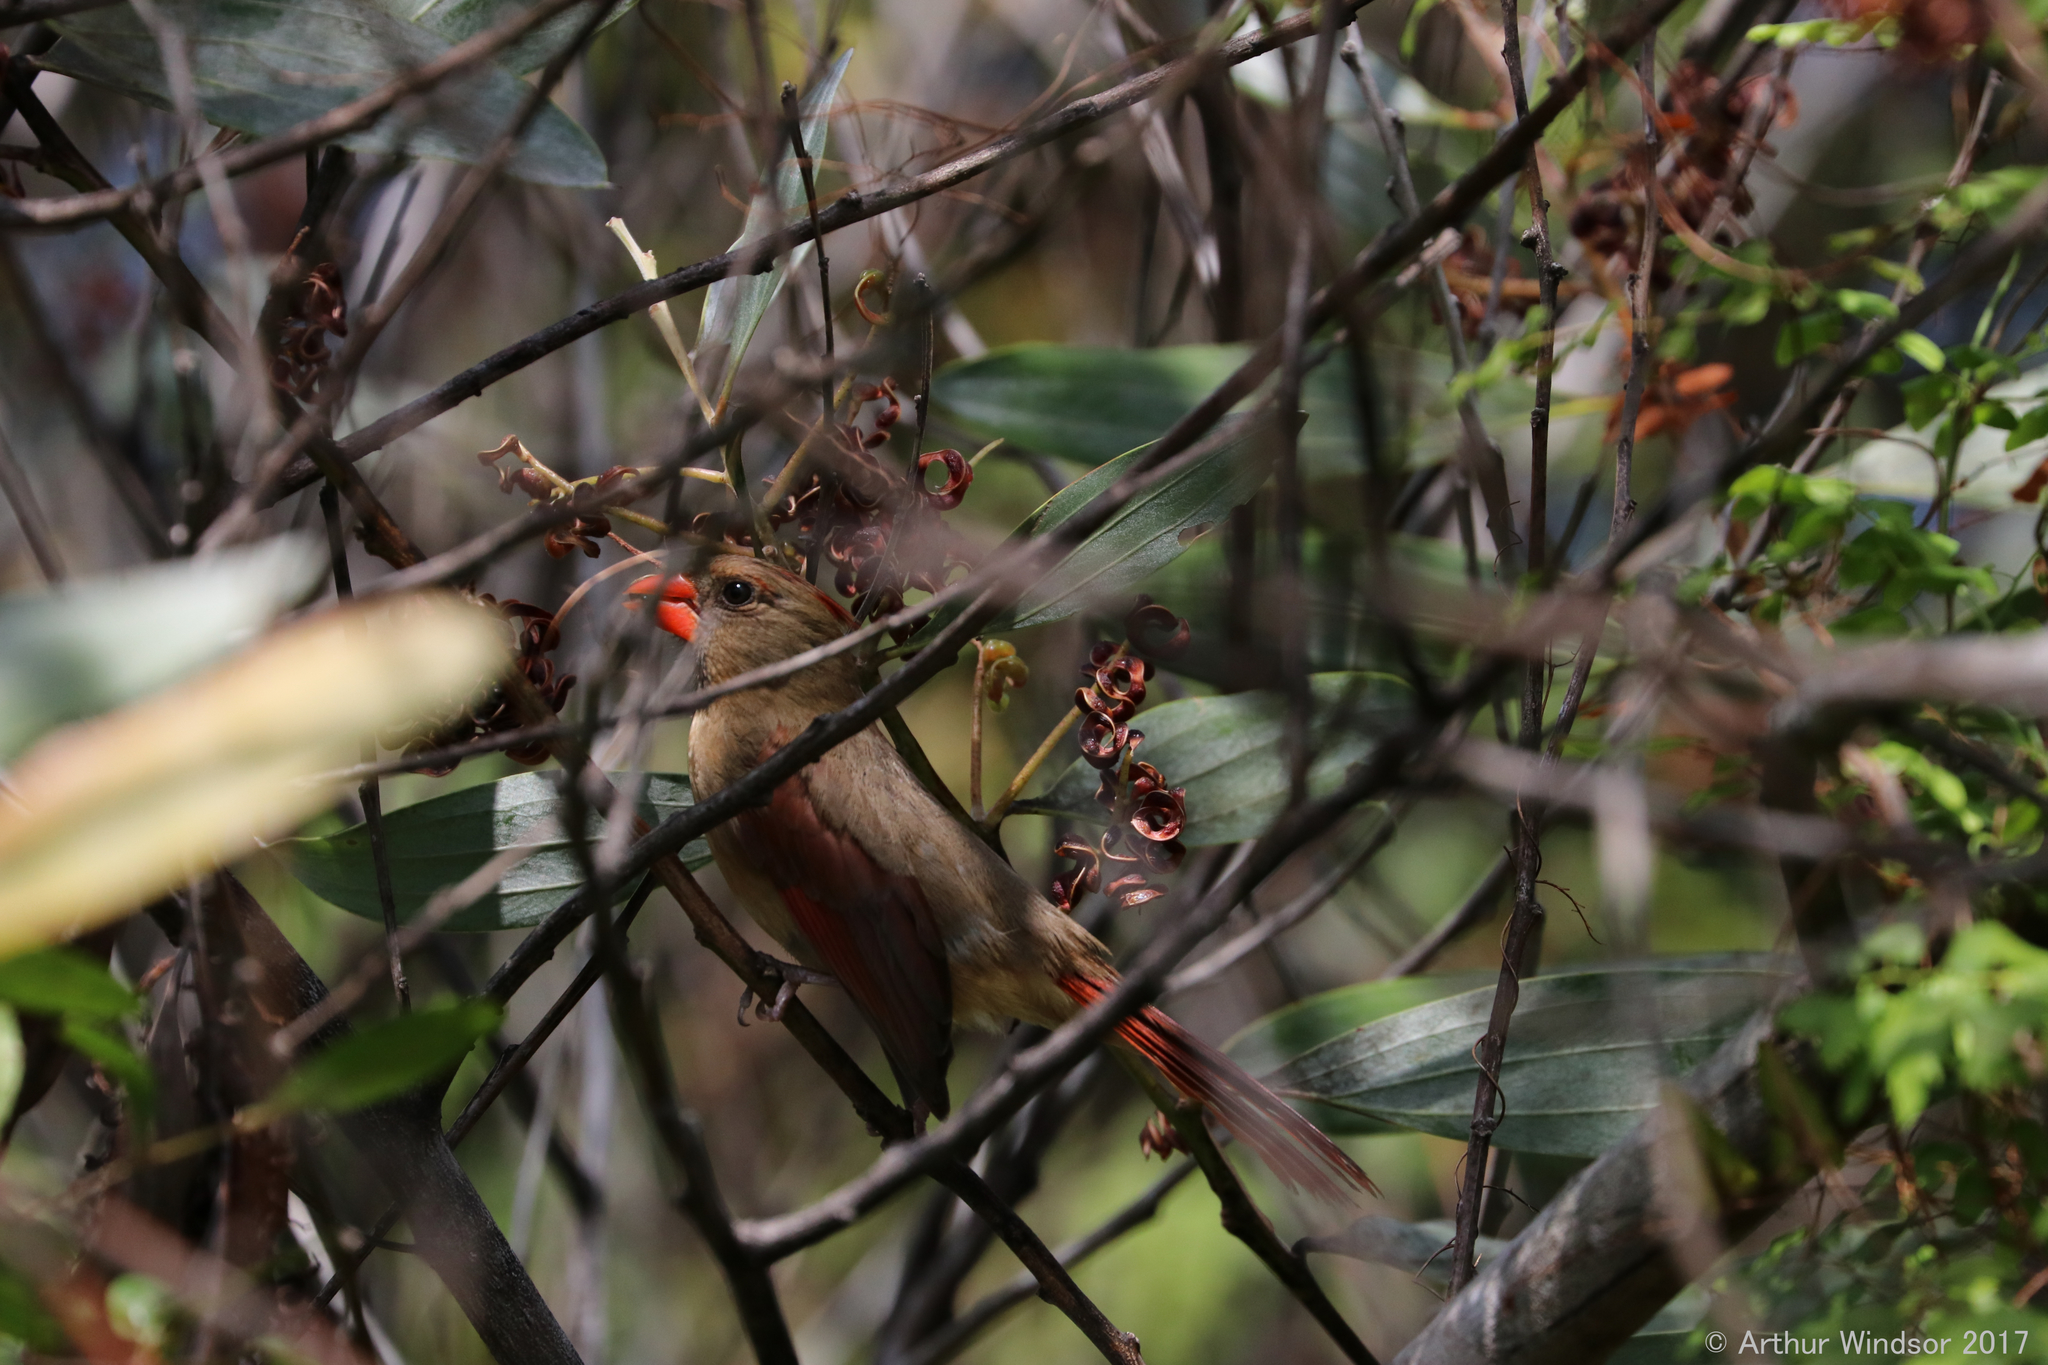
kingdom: Animalia
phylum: Chordata
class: Aves
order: Passeriformes
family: Cardinalidae
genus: Cardinalis
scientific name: Cardinalis cardinalis
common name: Northern cardinal
